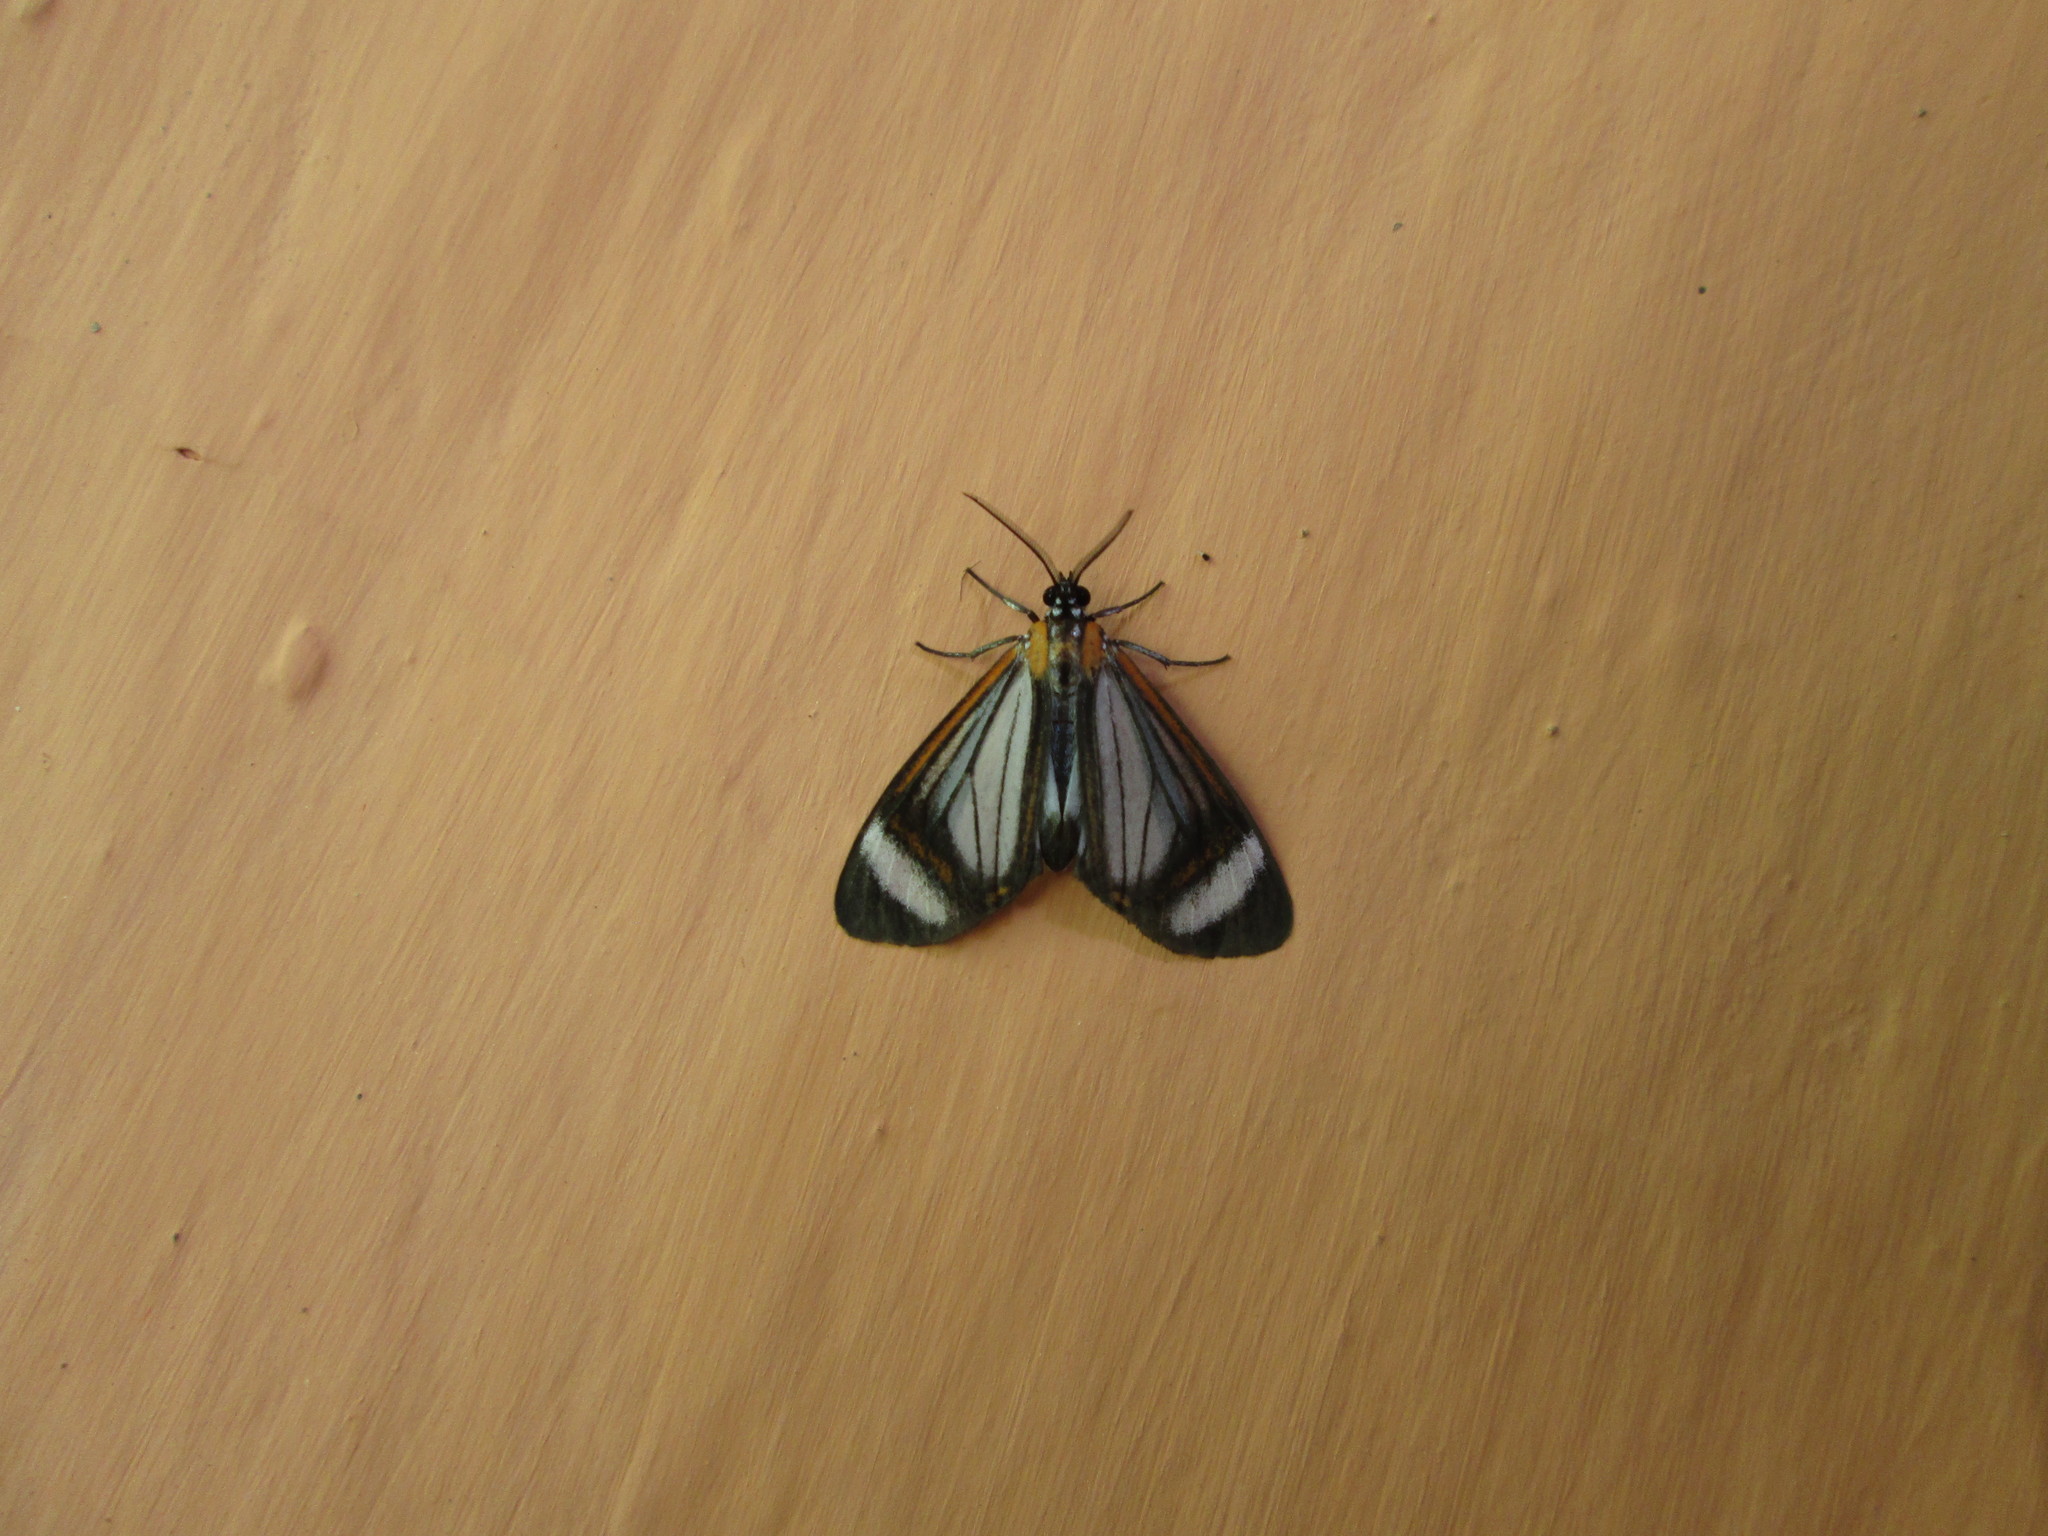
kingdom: Animalia
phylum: Arthropoda
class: Insecta
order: Lepidoptera
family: Erebidae
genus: Hyalurga
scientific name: Hyalurga sora
